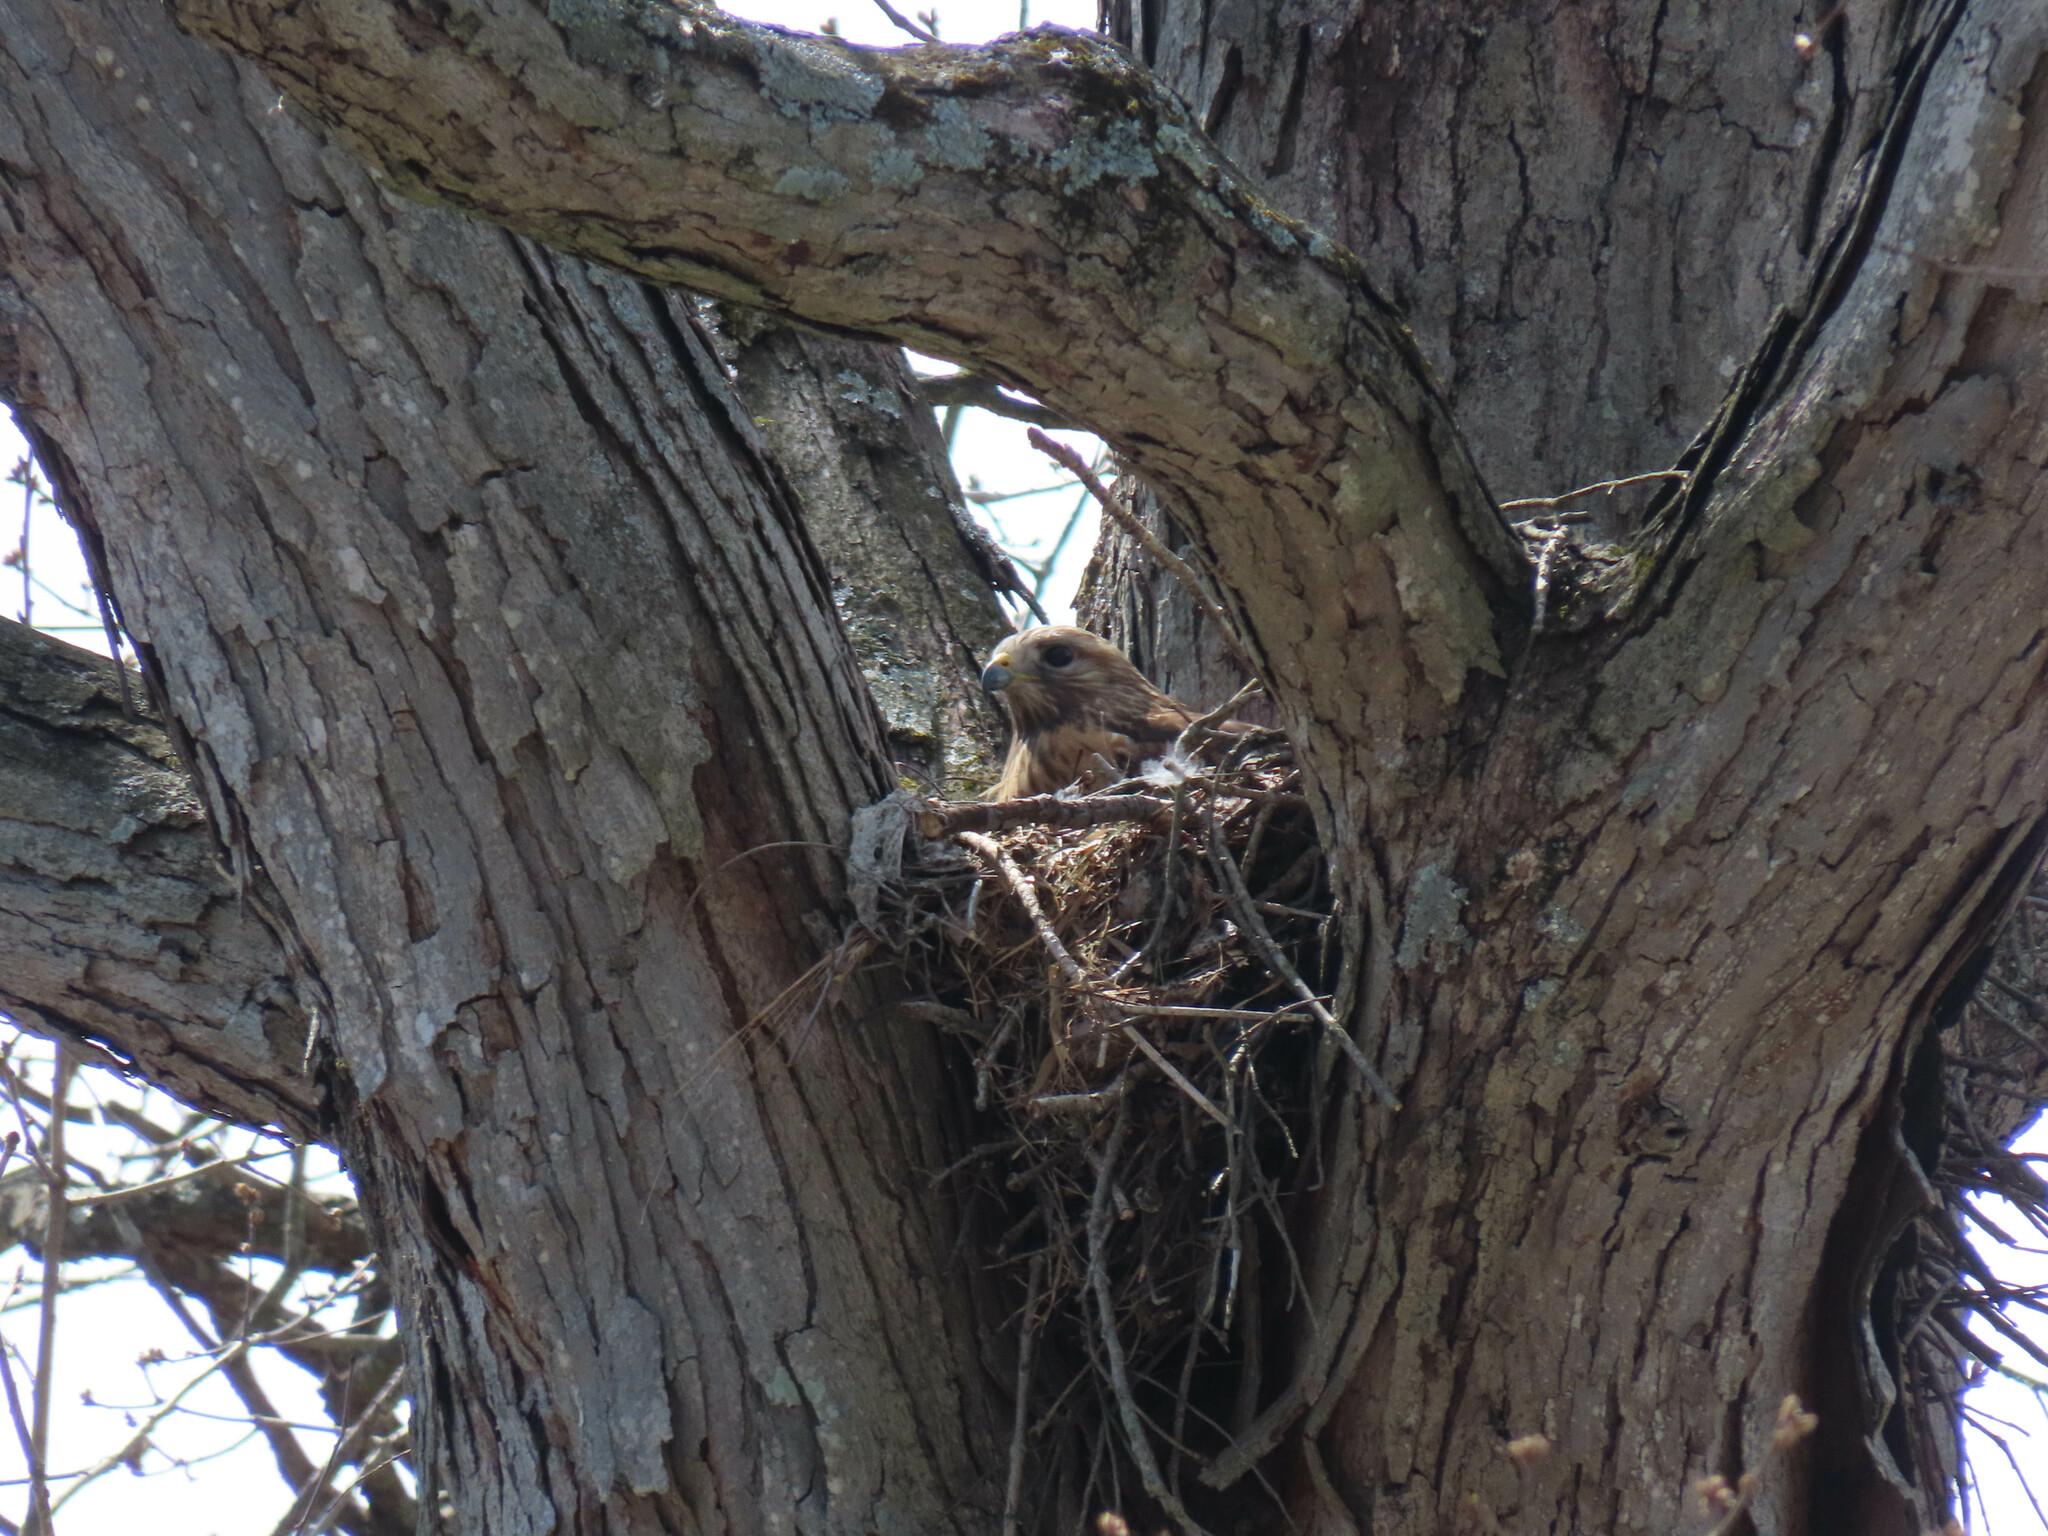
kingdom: Animalia
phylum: Chordata
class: Aves
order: Accipitriformes
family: Accipitridae
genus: Buteo
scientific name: Buteo lineatus
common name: Red-shouldered hawk
